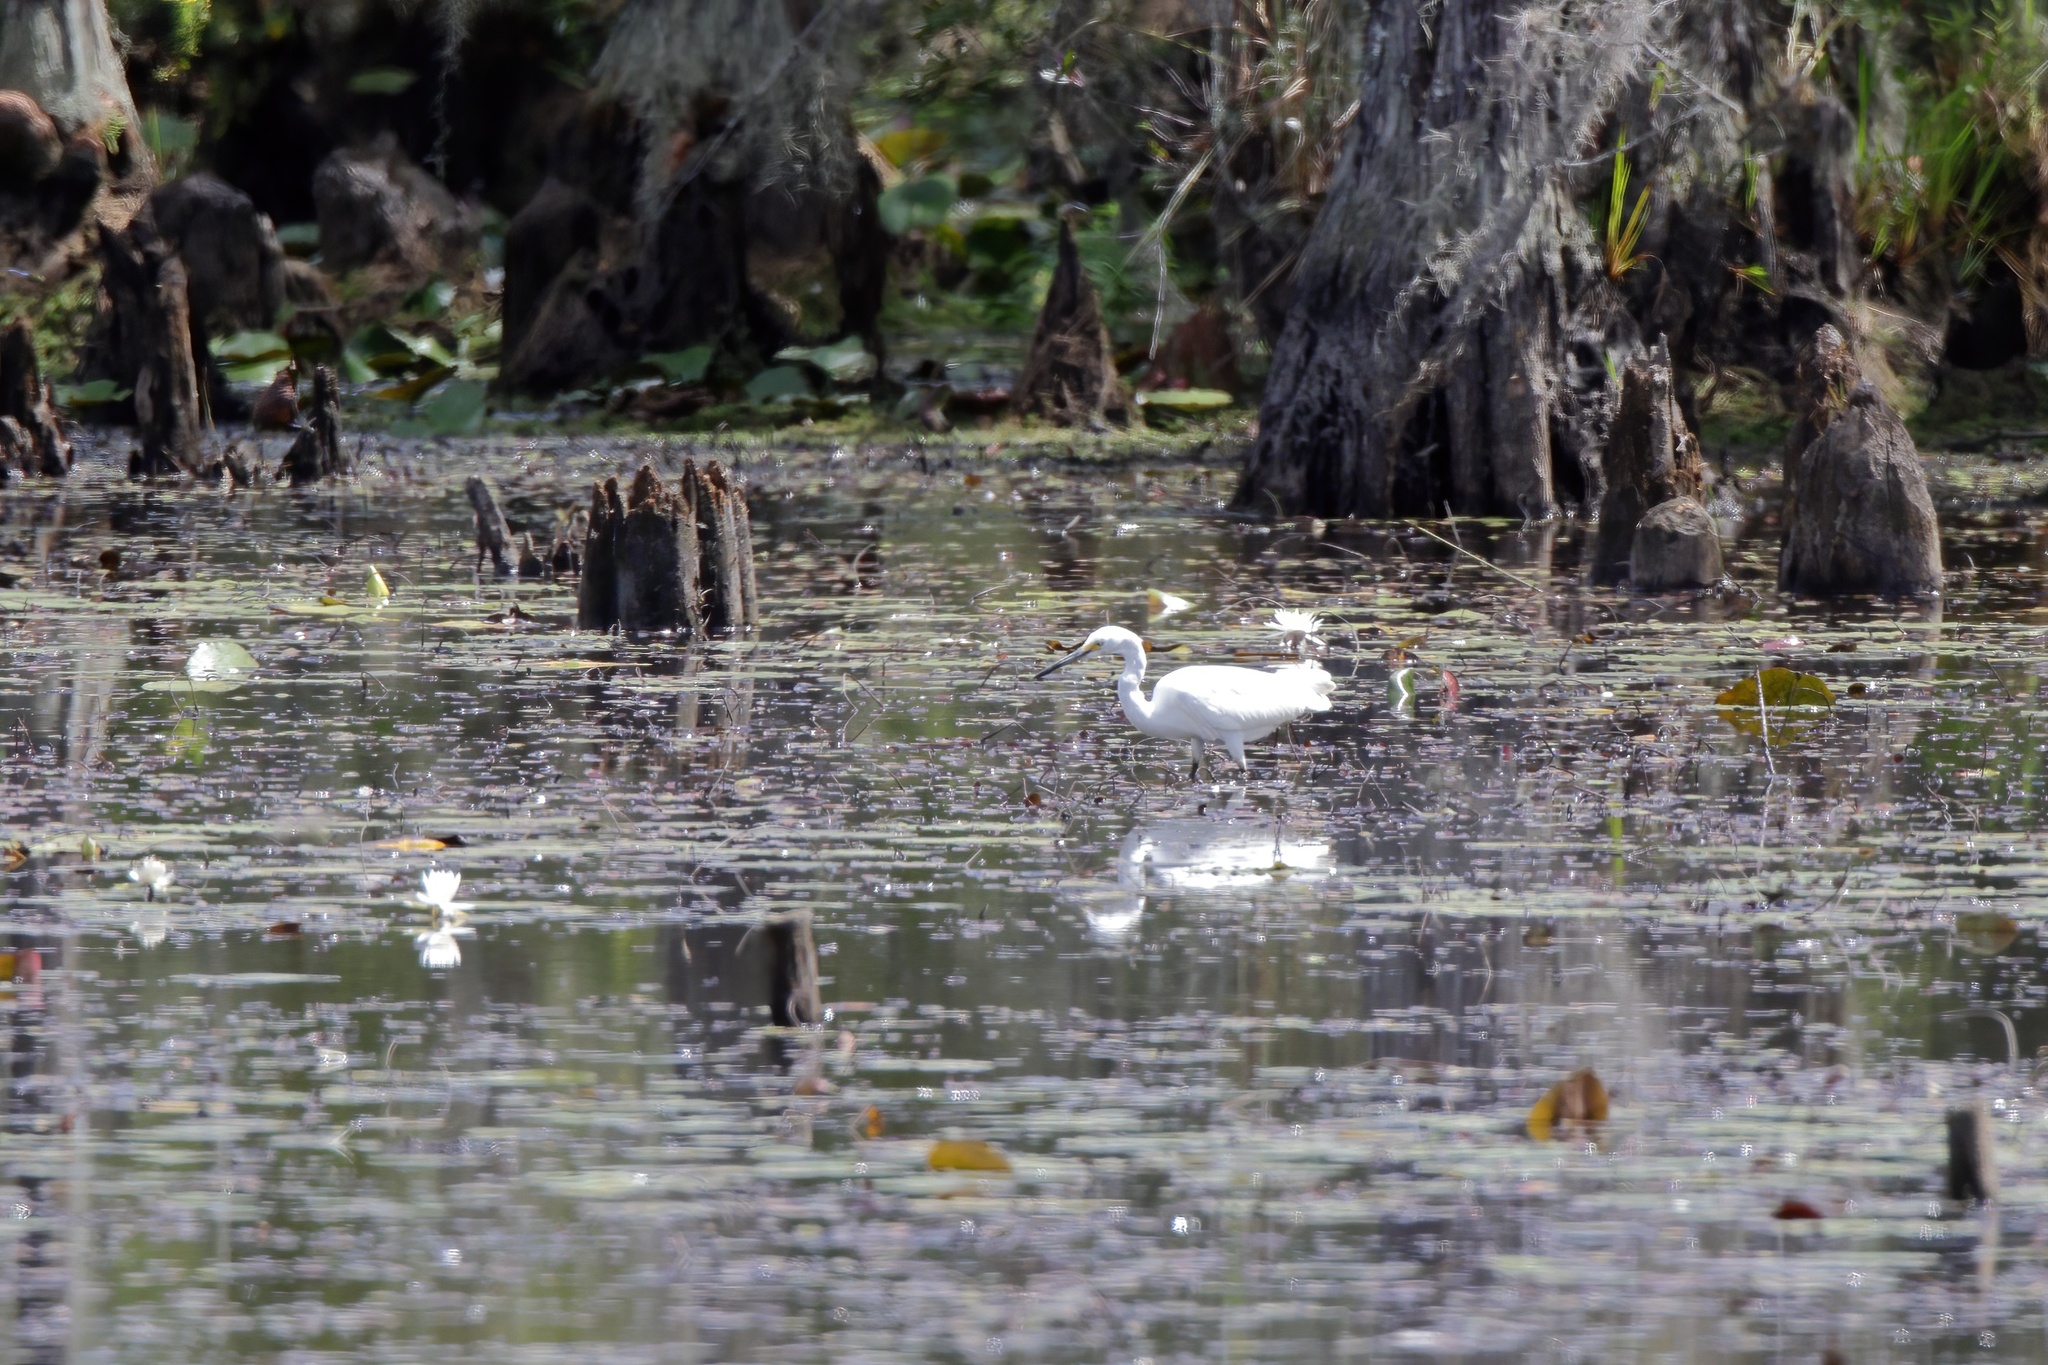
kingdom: Animalia
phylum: Chordata
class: Aves
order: Pelecaniformes
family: Ardeidae
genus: Egretta
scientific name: Egretta thula
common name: Snowy egret
